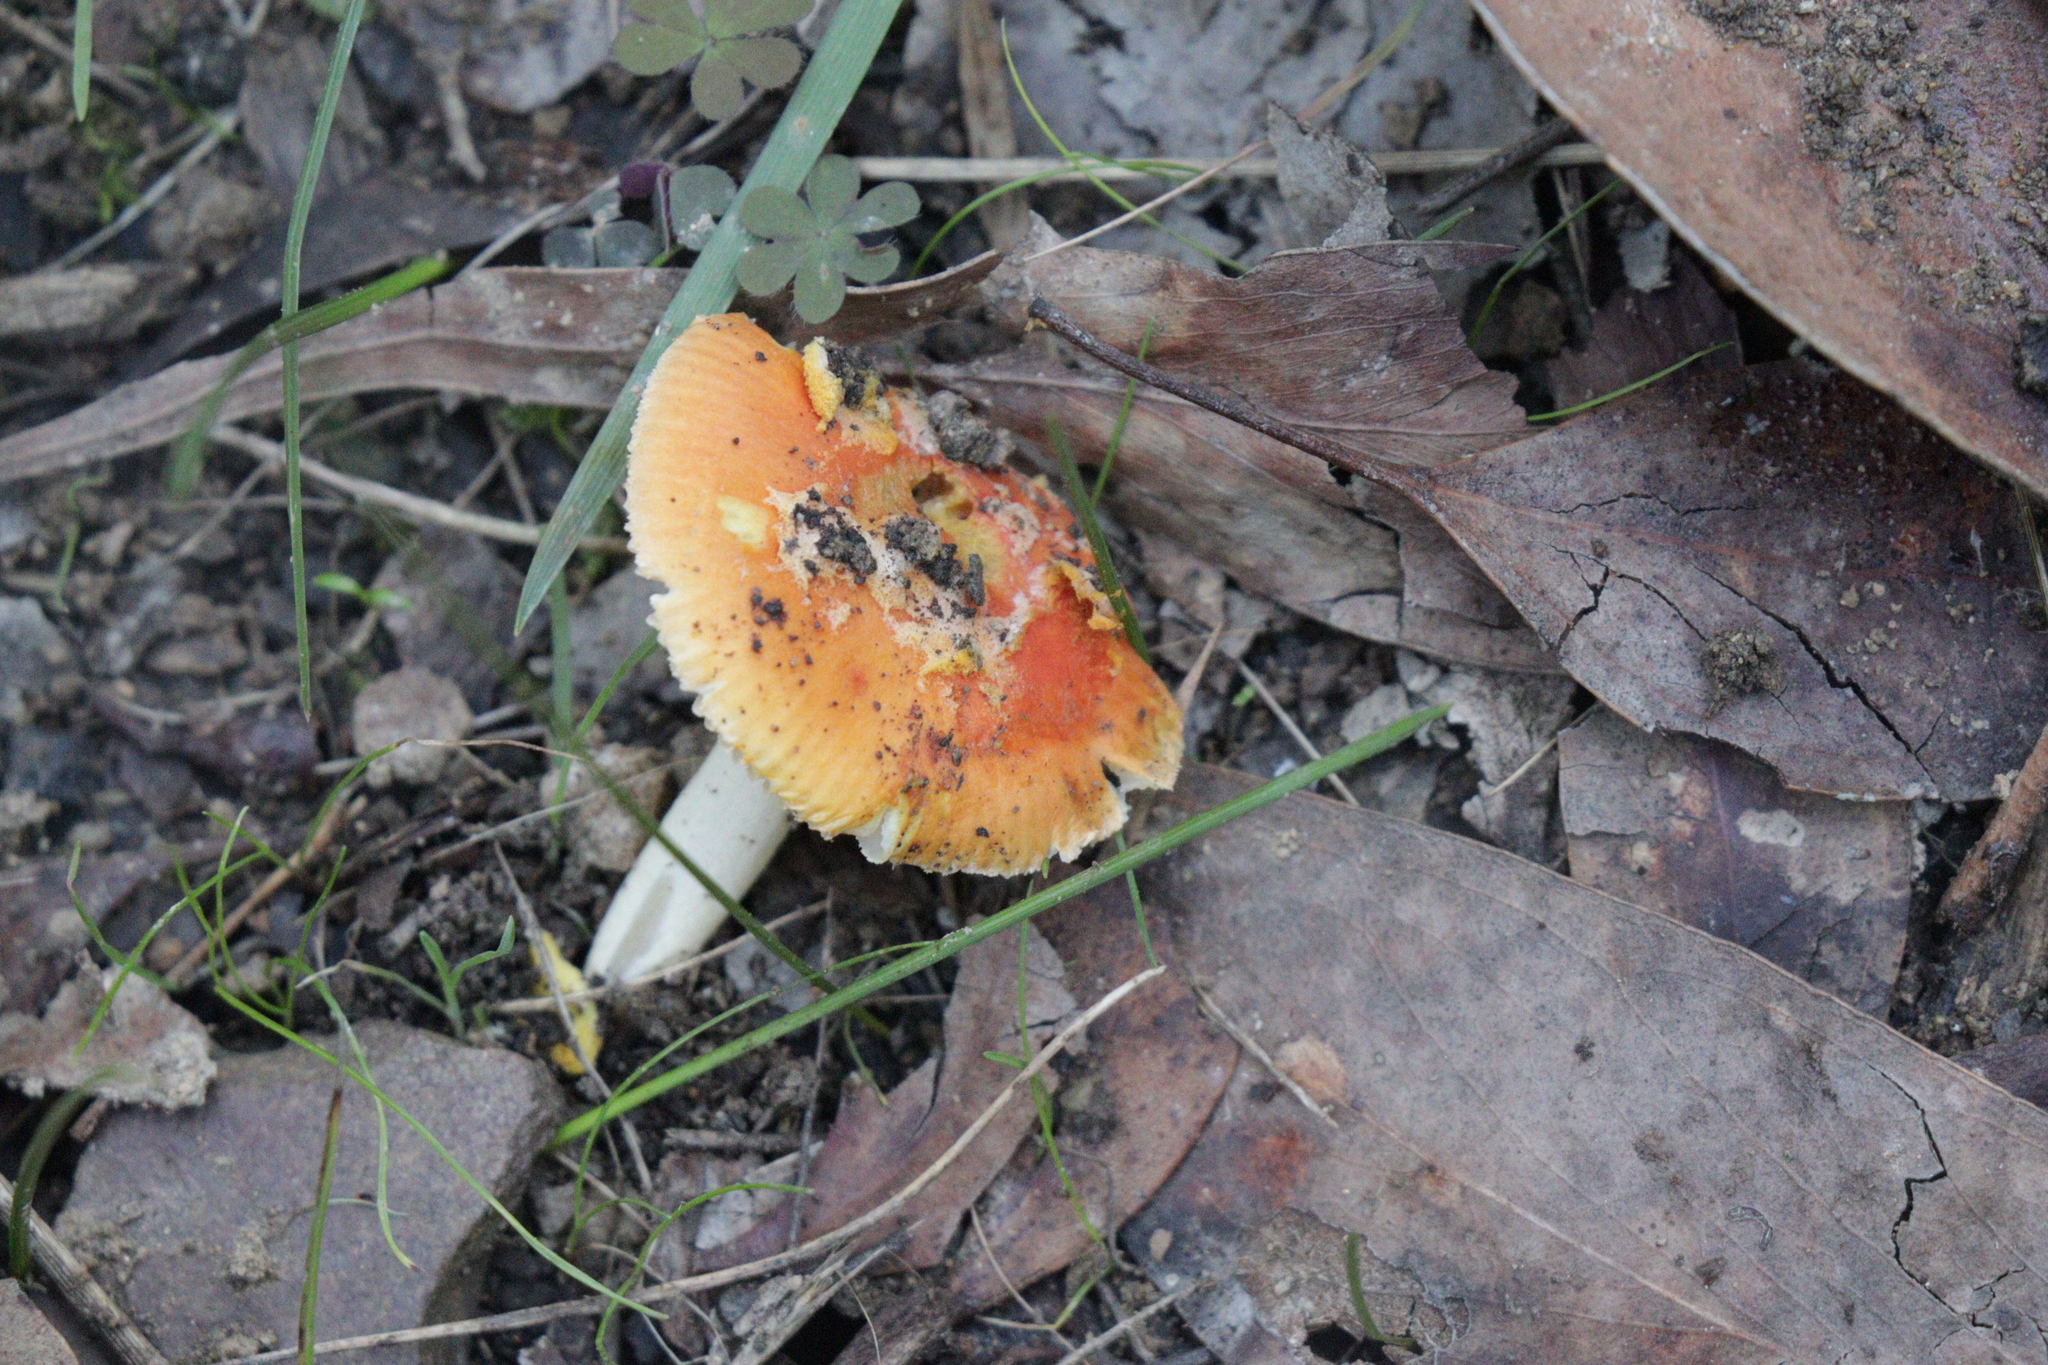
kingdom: Fungi
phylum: Basidiomycota
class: Agaricomycetes
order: Agaricales
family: Amanitaceae
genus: Amanita
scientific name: Amanita xanthocephala
